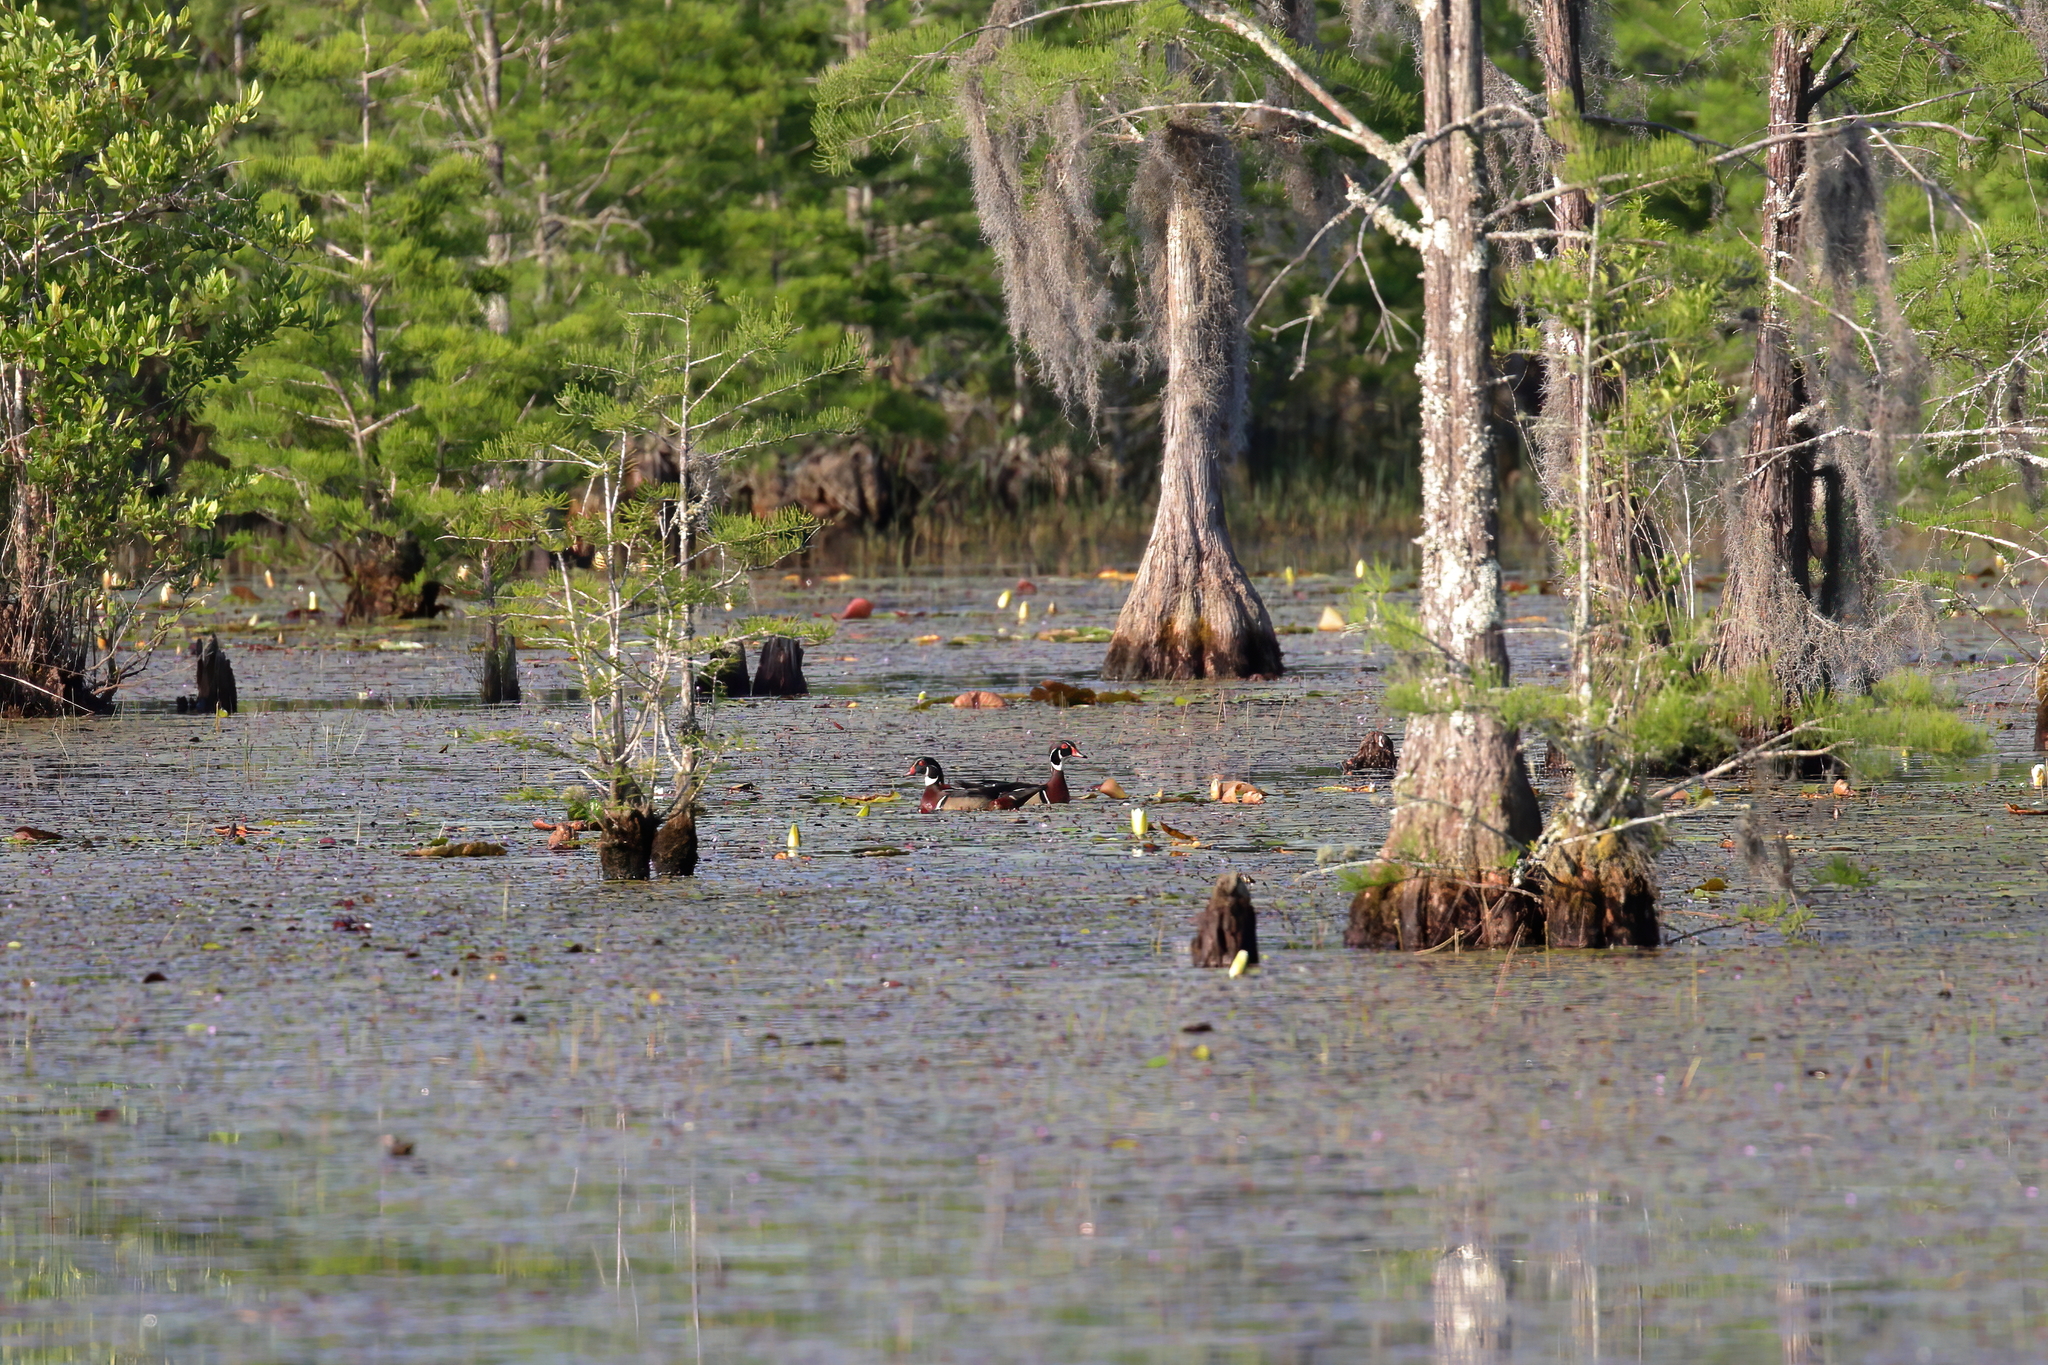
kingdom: Animalia
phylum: Chordata
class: Aves
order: Anseriformes
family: Anatidae
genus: Aix
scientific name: Aix sponsa
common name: Wood duck
